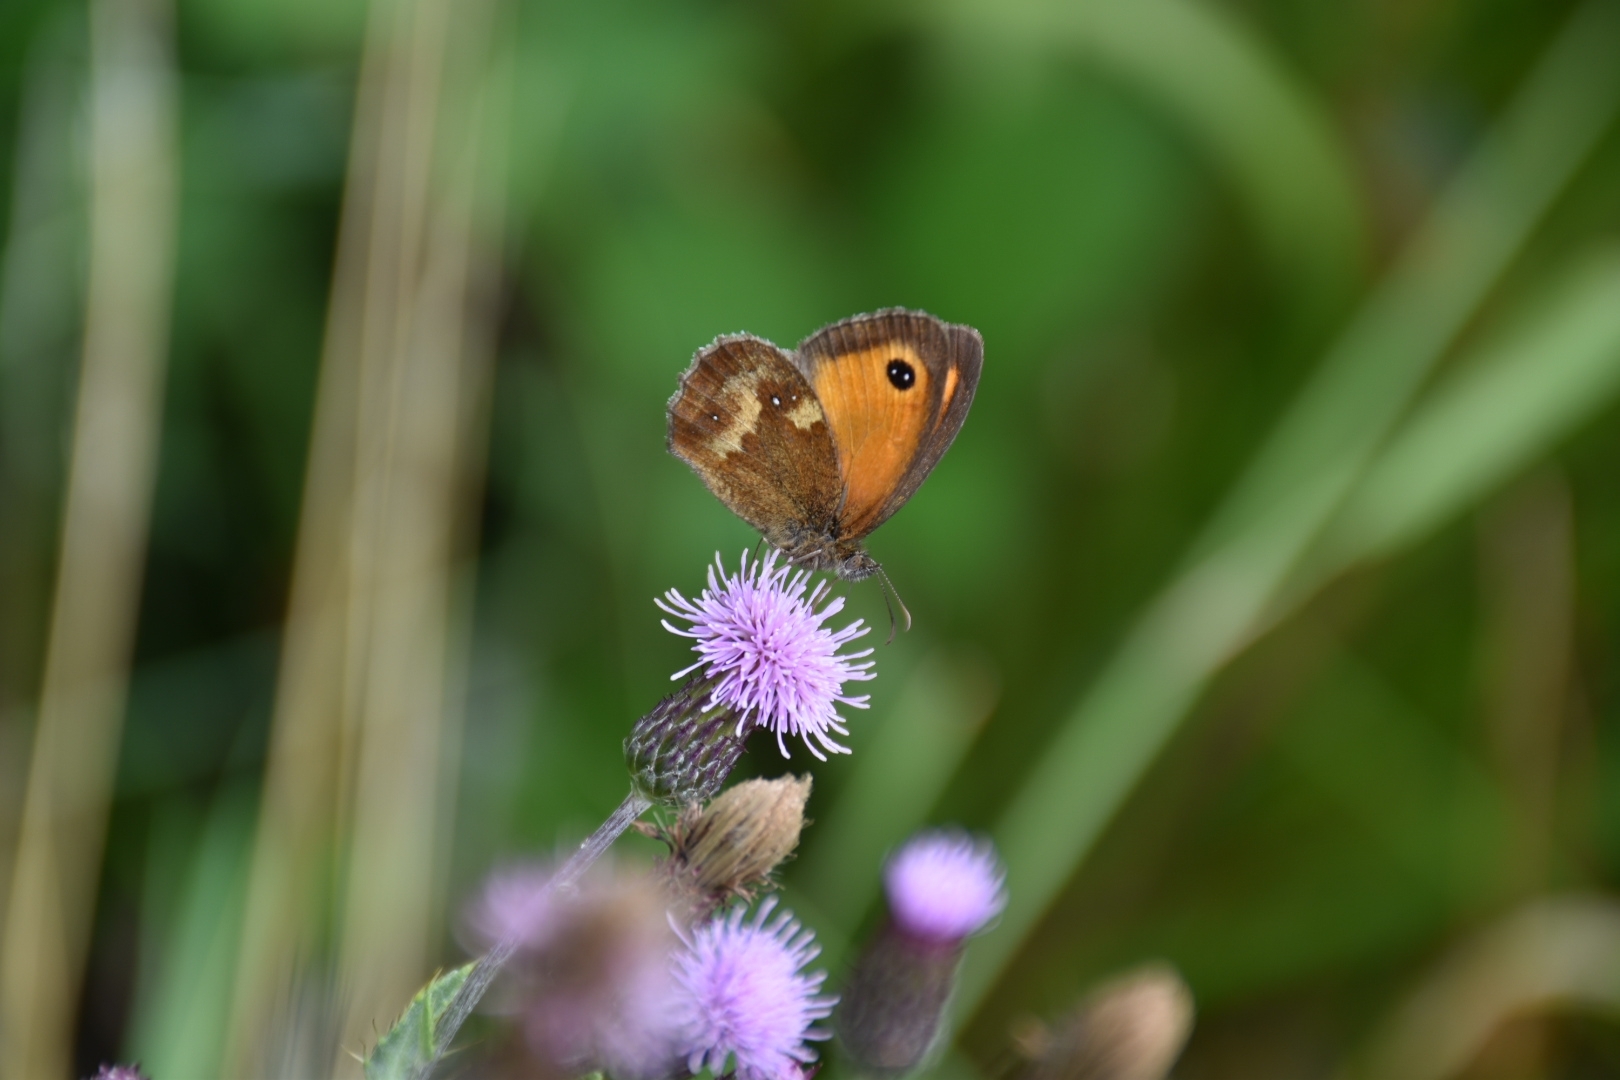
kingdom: Animalia
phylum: Arthropoda
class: Insecta
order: Lepidoptera
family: Nymphalidae
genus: Pyronia
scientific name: Pyronia tithonus
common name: Gatekeeper
